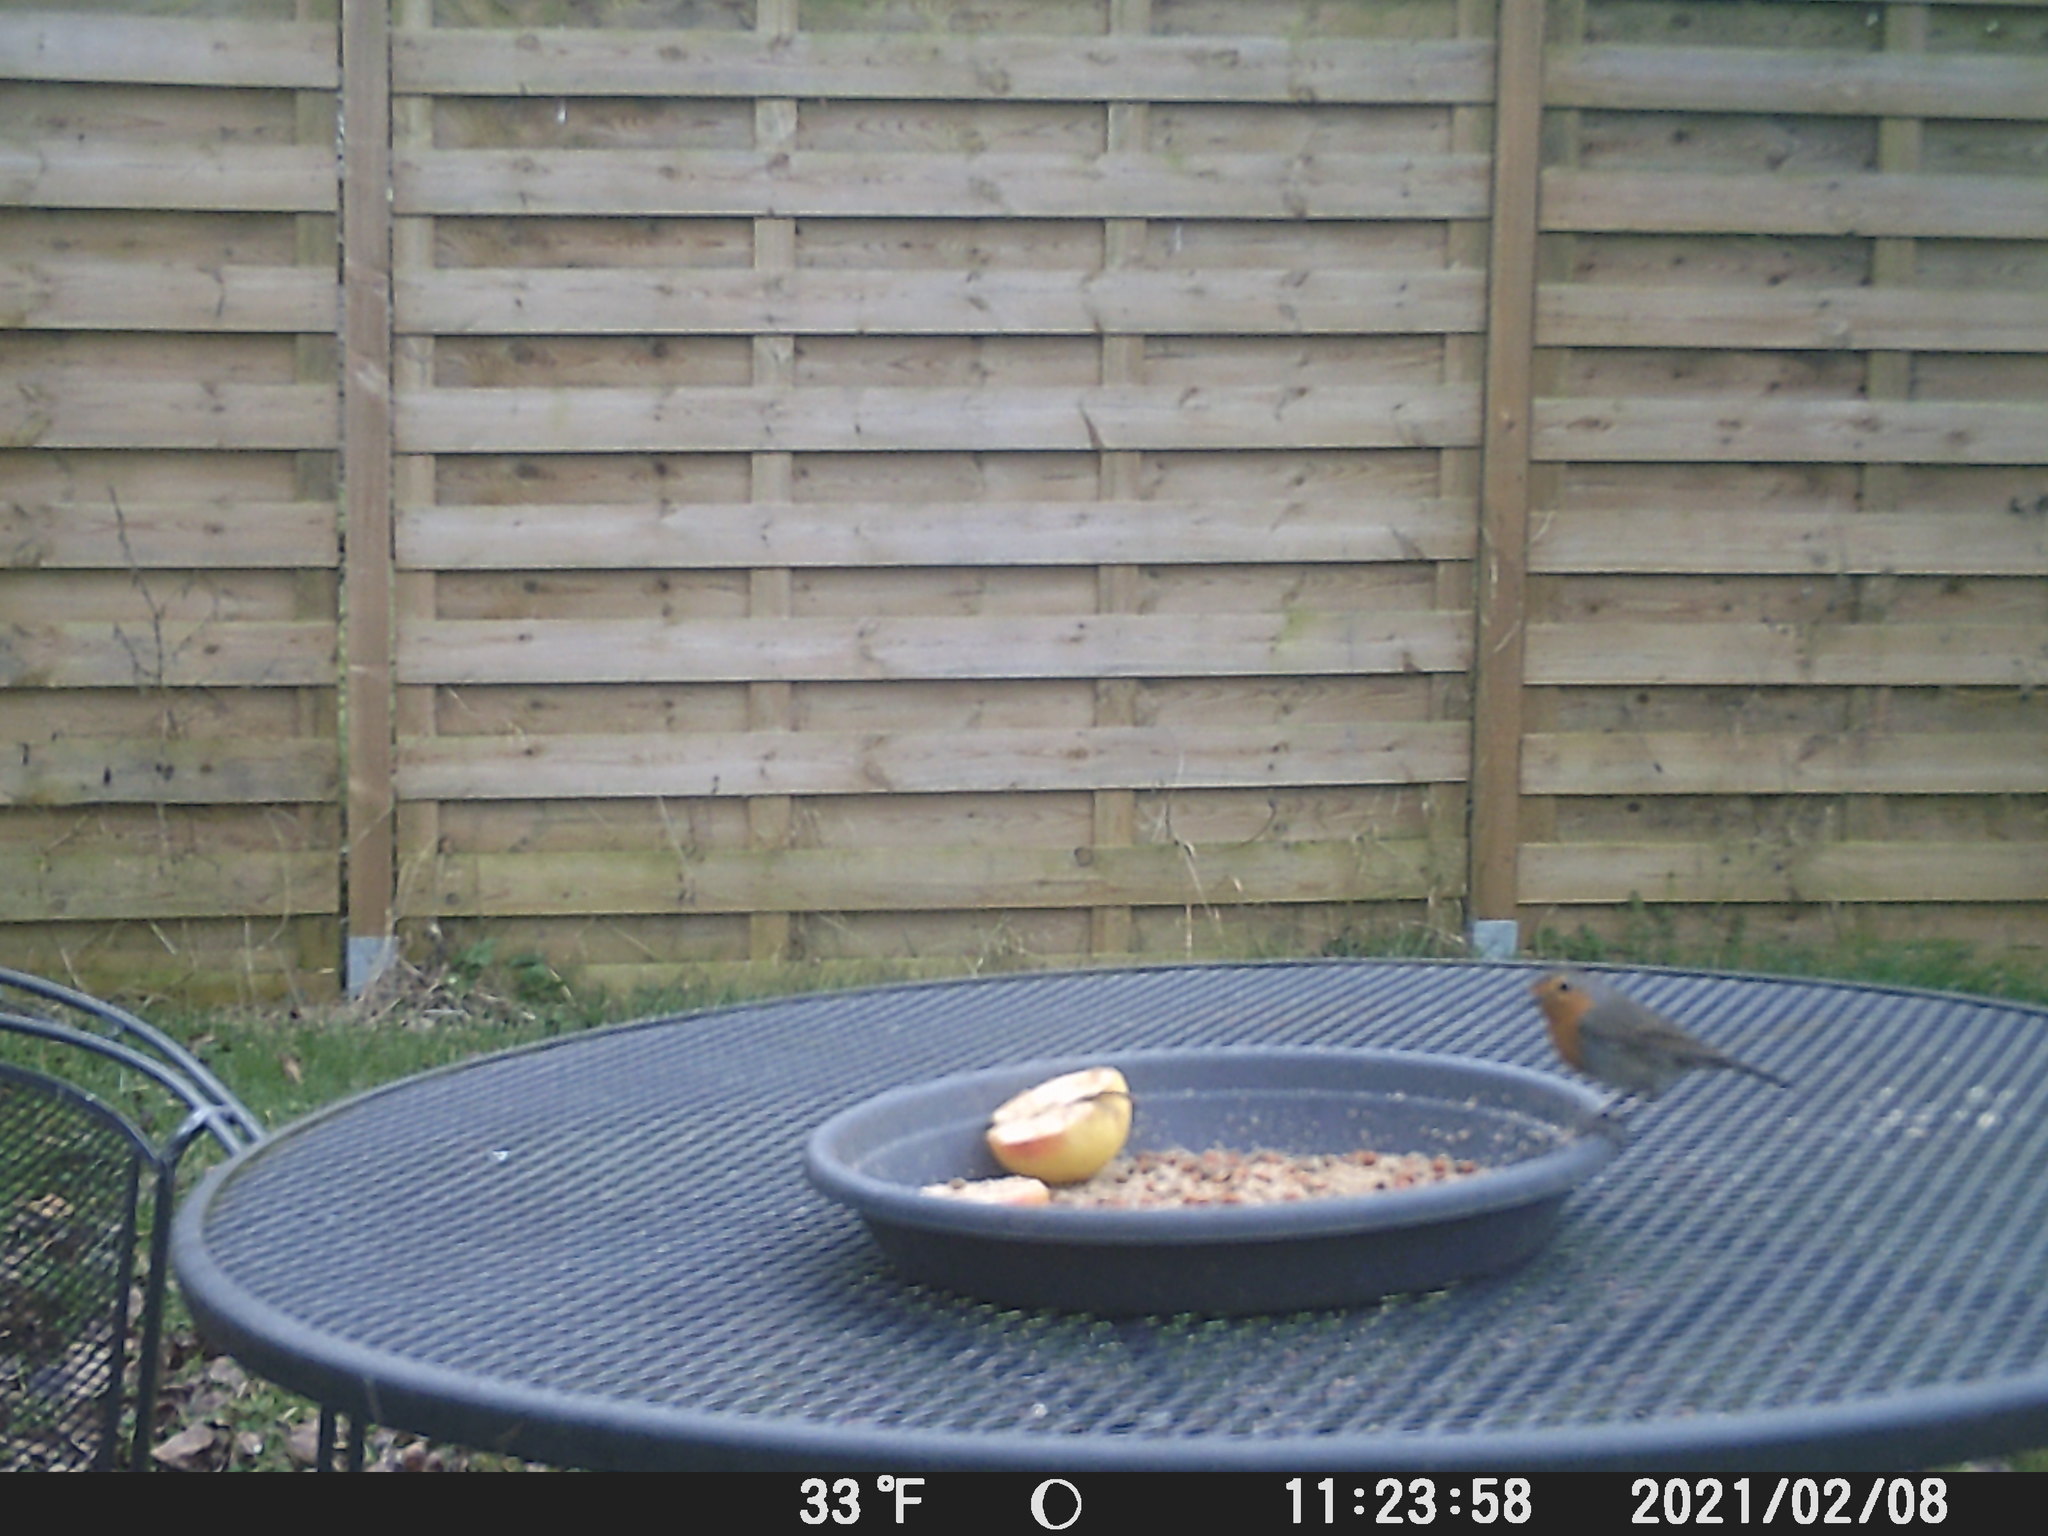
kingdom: Animalia
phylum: Chordata
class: Aves
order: Passeriformes
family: Muscicapidae
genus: Erithacus
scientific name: Erithacus rubecula
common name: European robin
